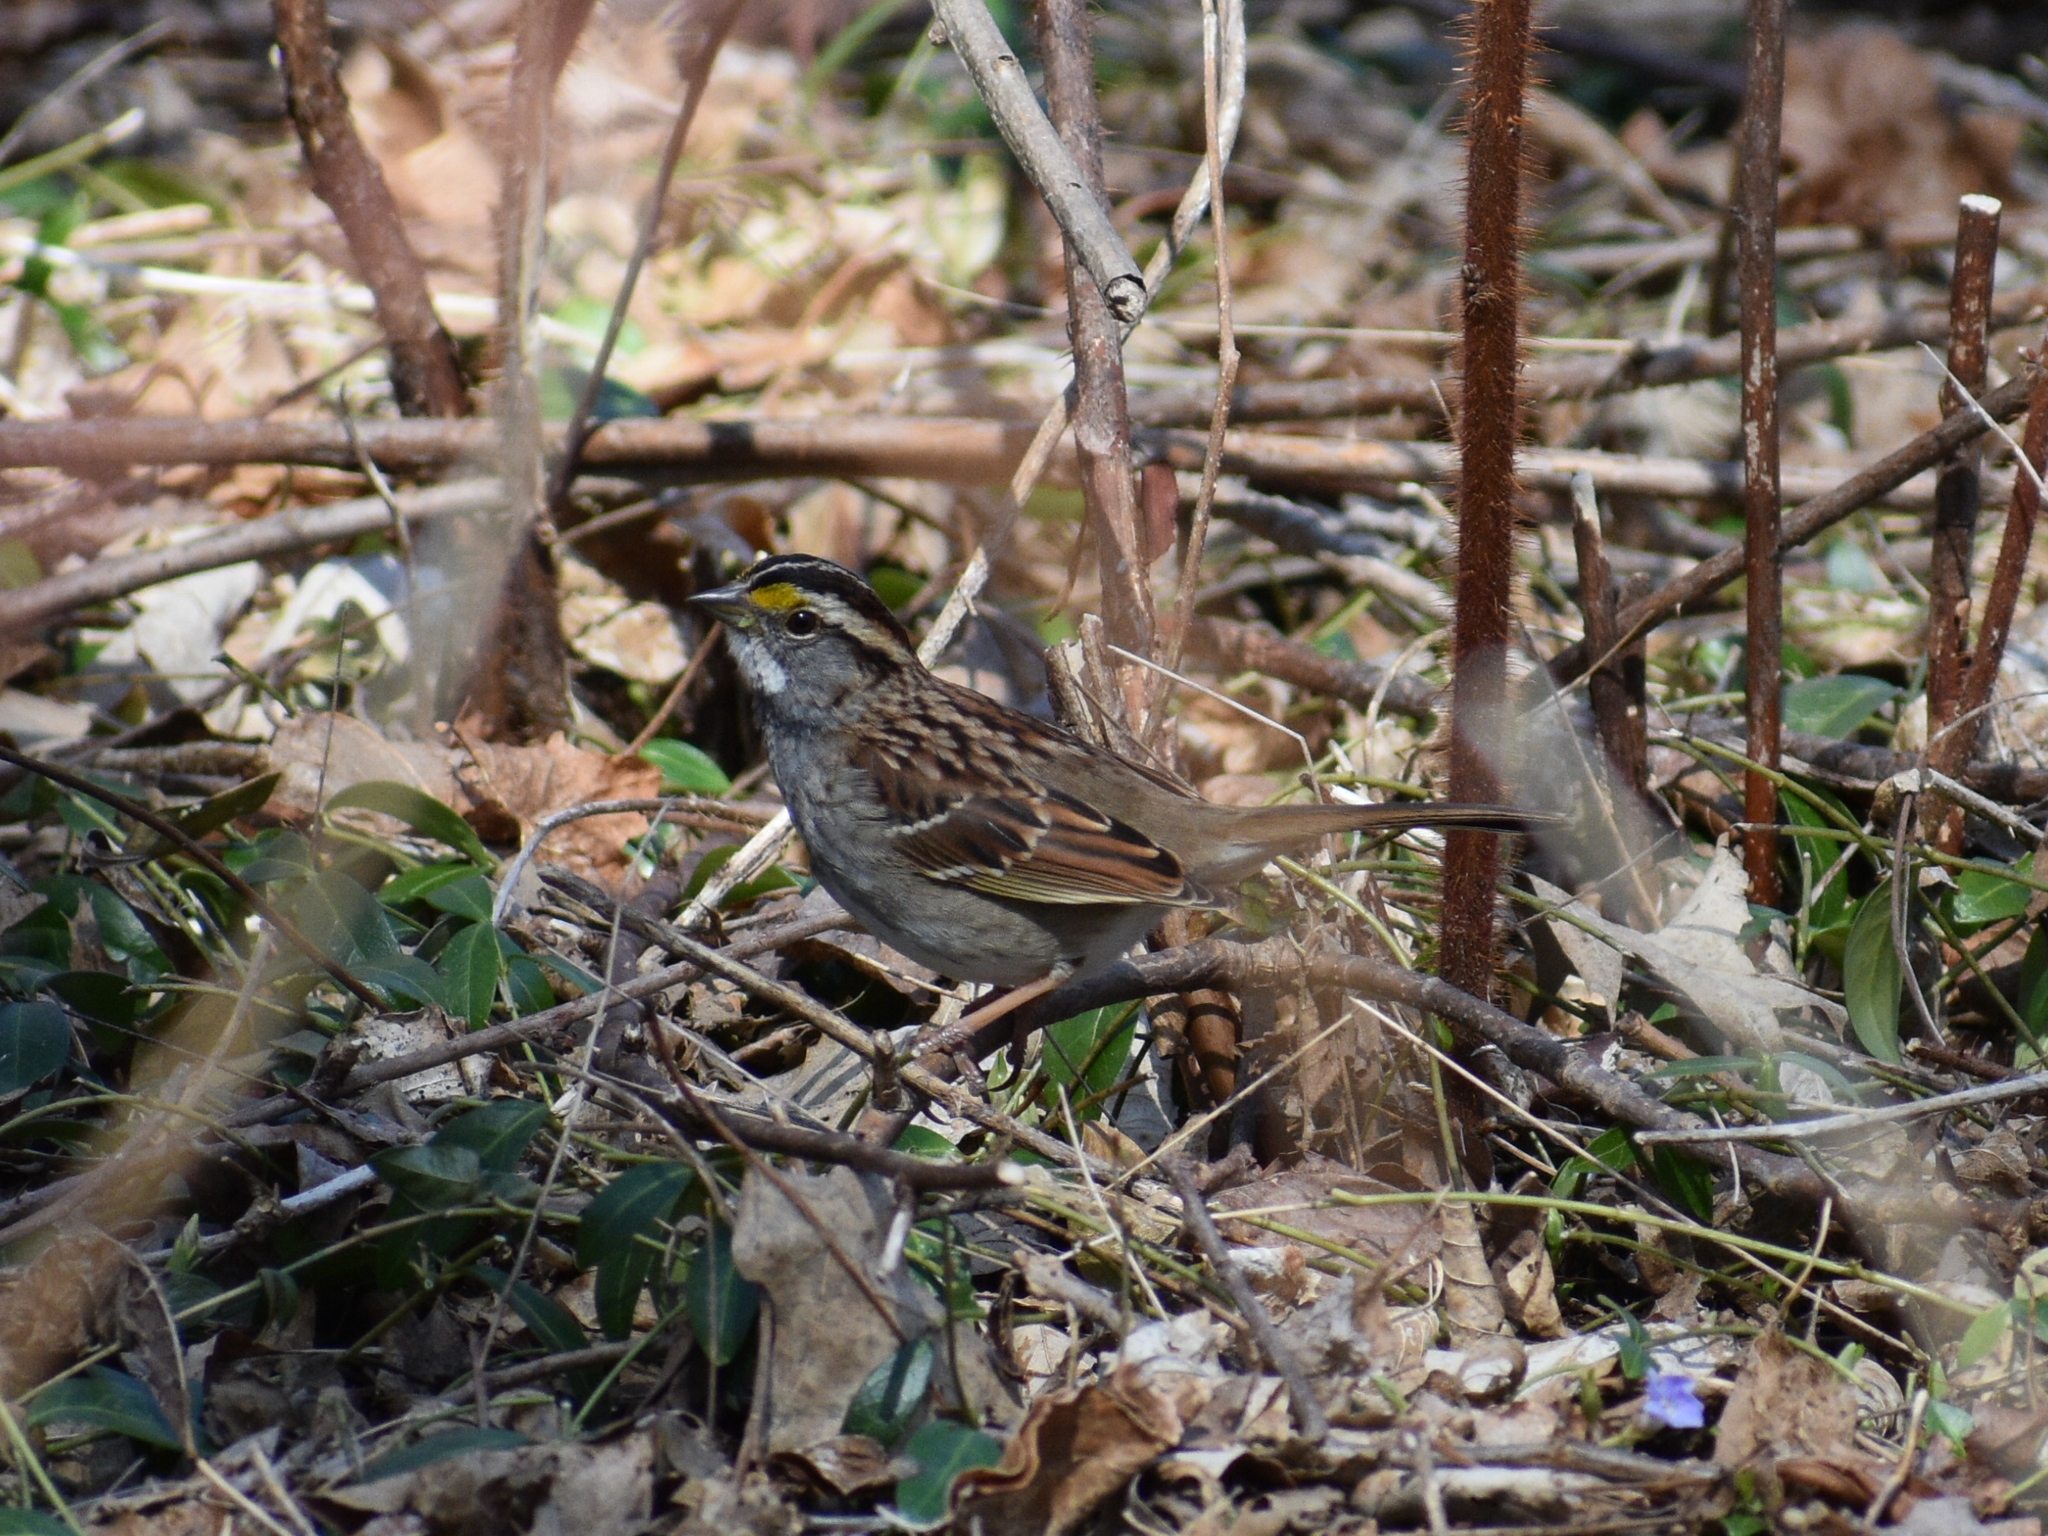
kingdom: Animalia
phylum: Chordata
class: Aves
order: Passeriformes
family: Passerellidae
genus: Zonotrichia
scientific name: Zonotrichia albicollis
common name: White-throated sparrow
